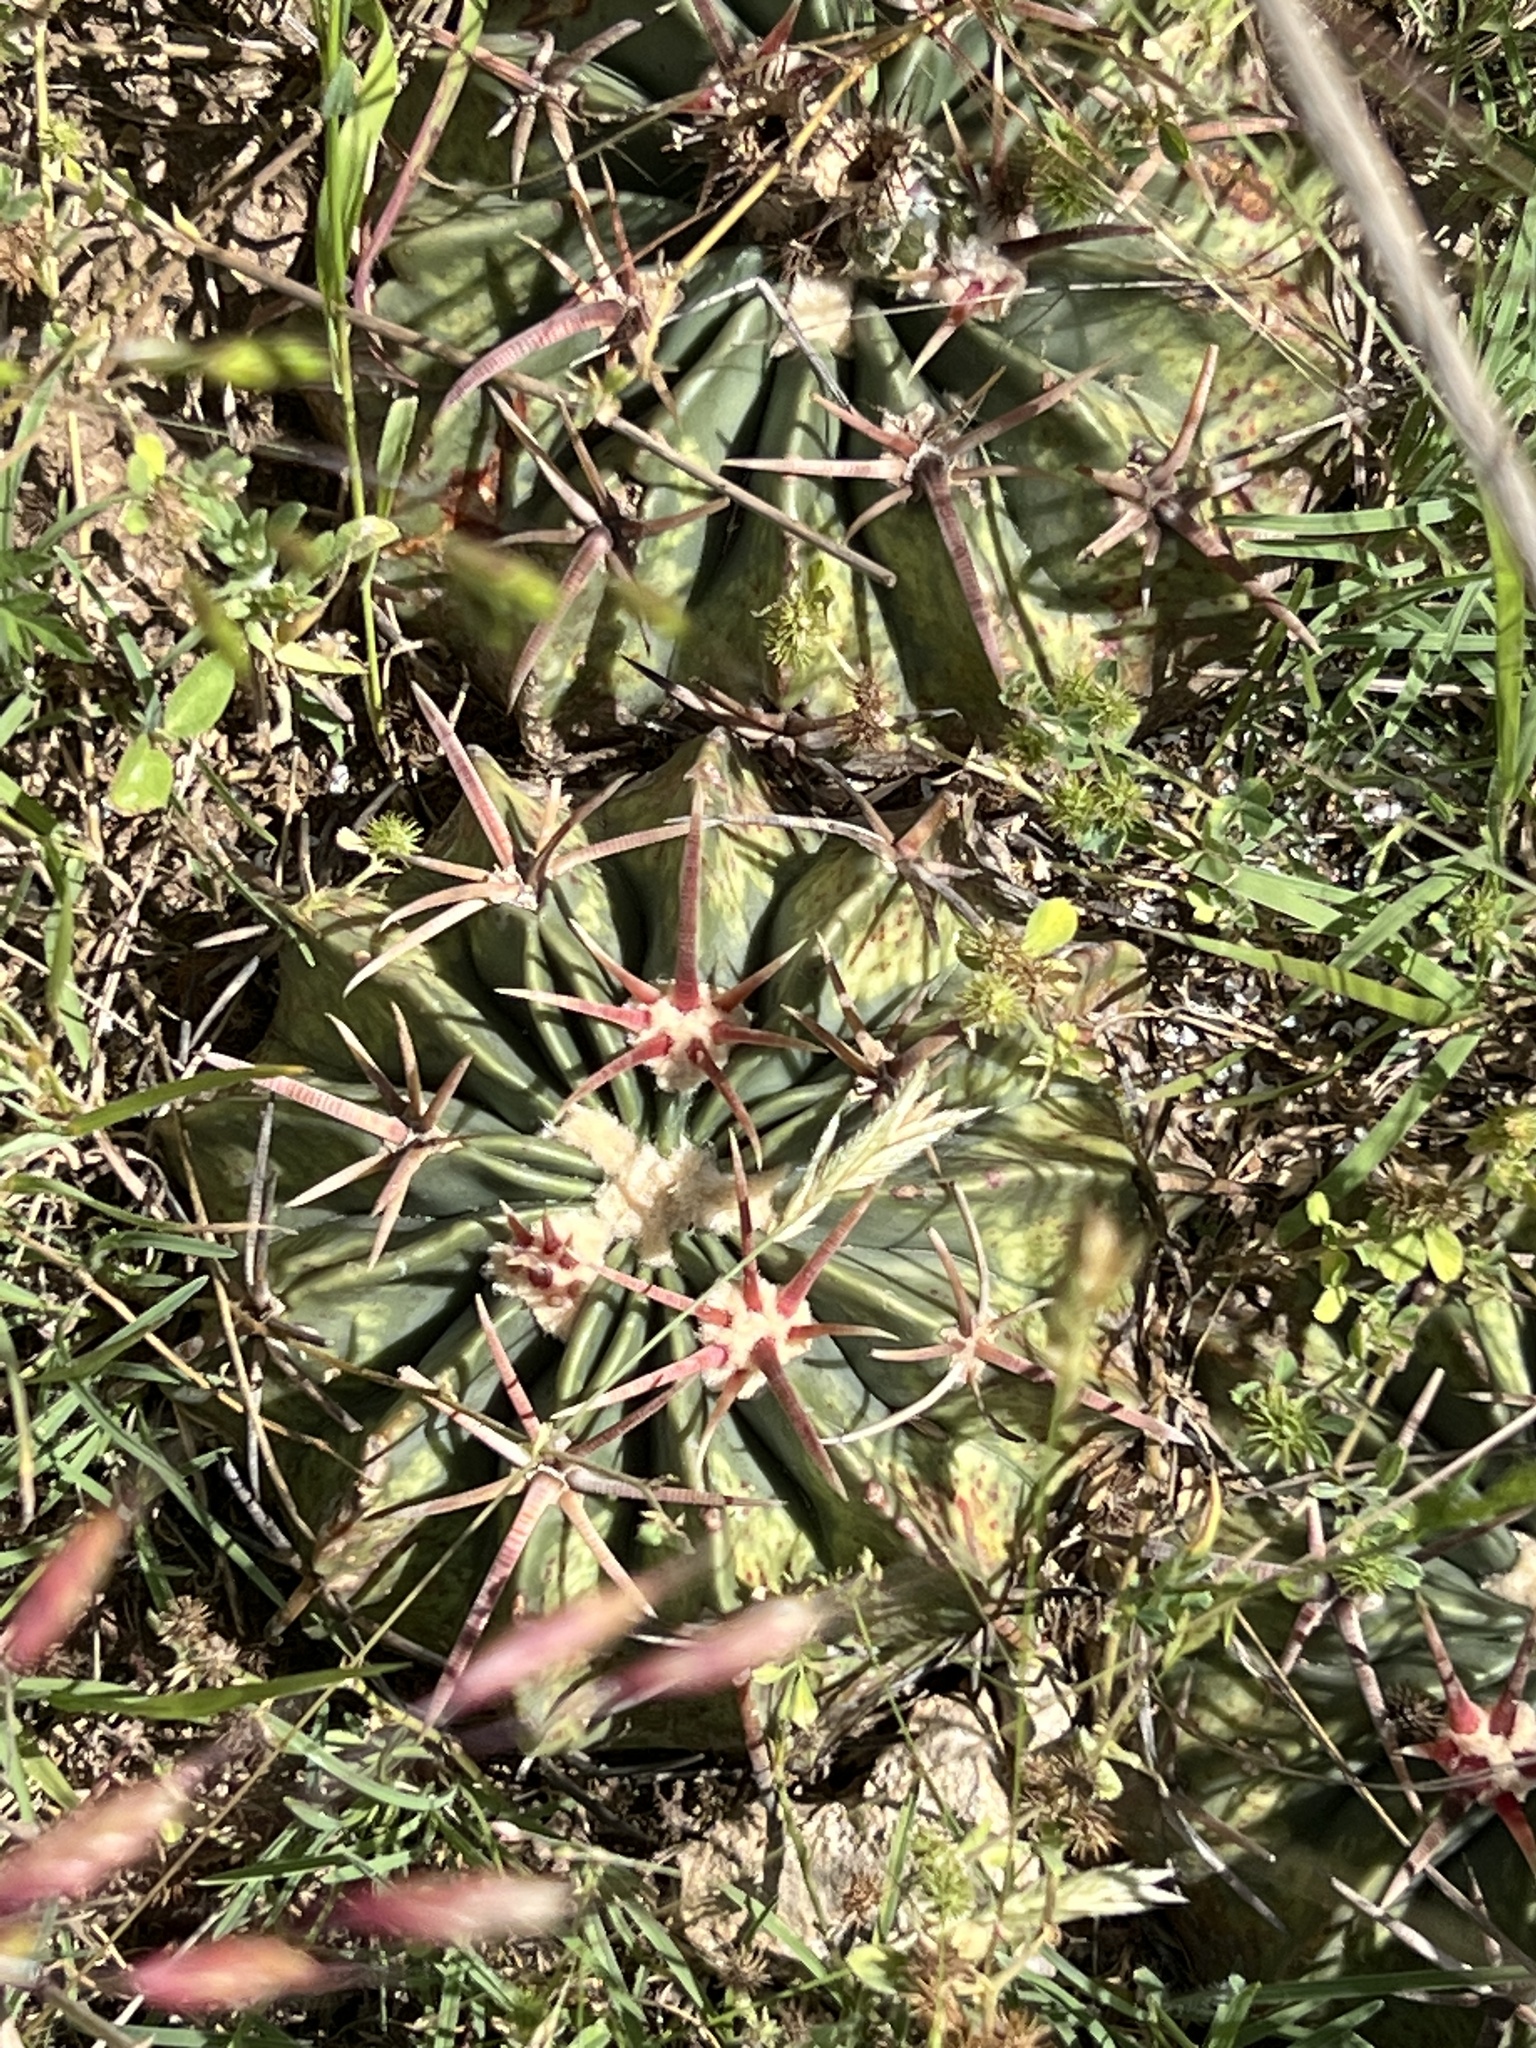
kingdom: Plantae
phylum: Tracheophyta
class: Magnoliopsida
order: Caryophyllales
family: Cactaceae
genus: Echinocactus
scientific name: Echinocactus texensis
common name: Devil's pincushion
